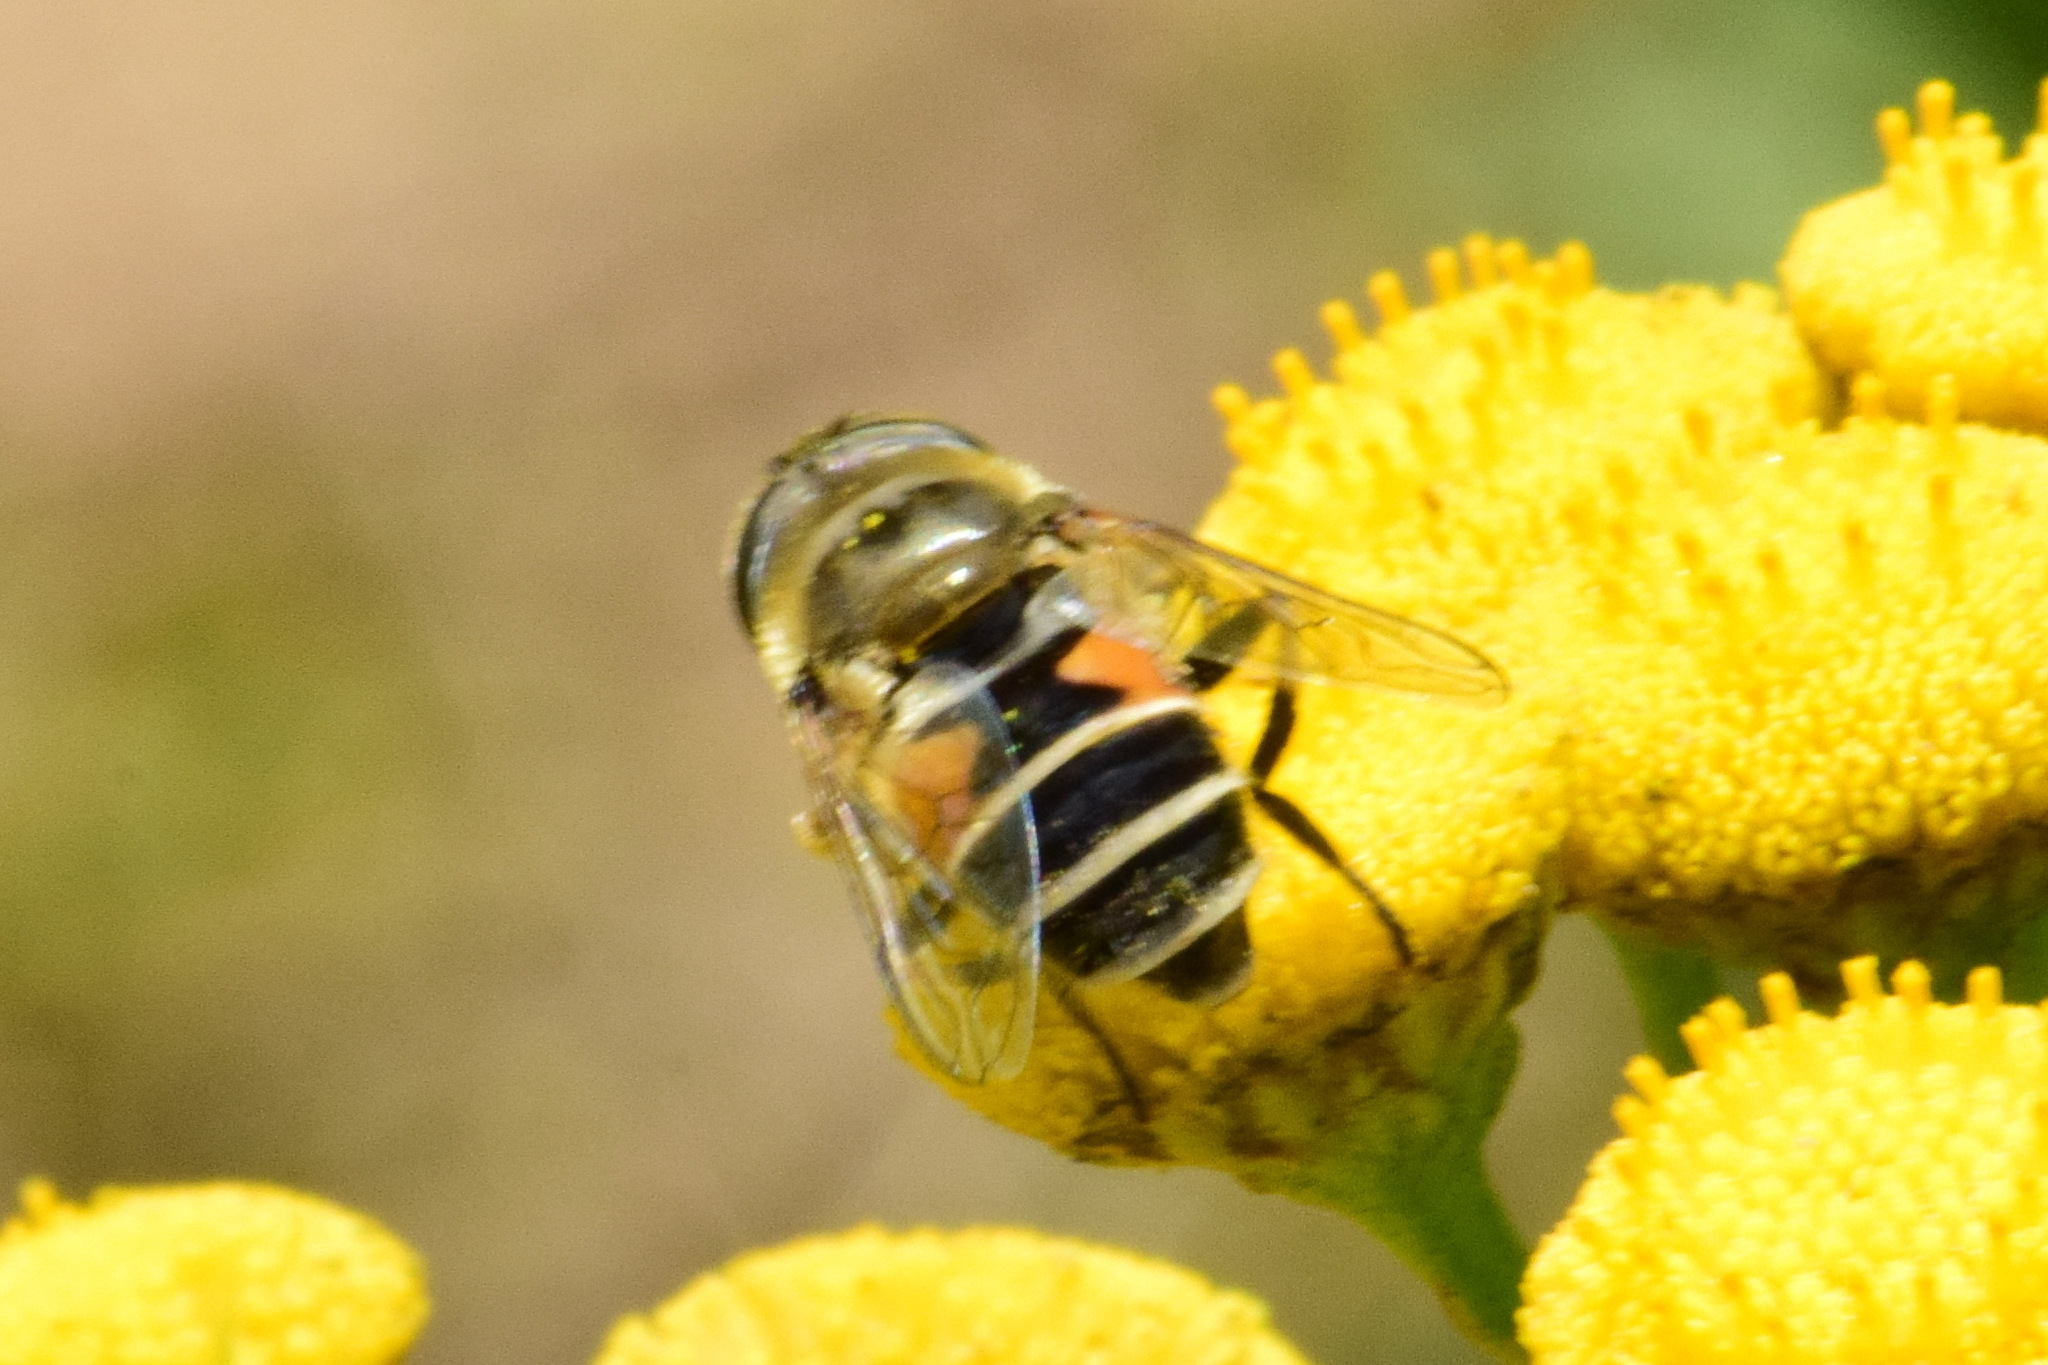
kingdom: Animalia
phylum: Arthropoda
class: Insecta
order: Diptera
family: Syrphidae
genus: Eristalis
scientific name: Eristalis arbustorum
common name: Hover fly
